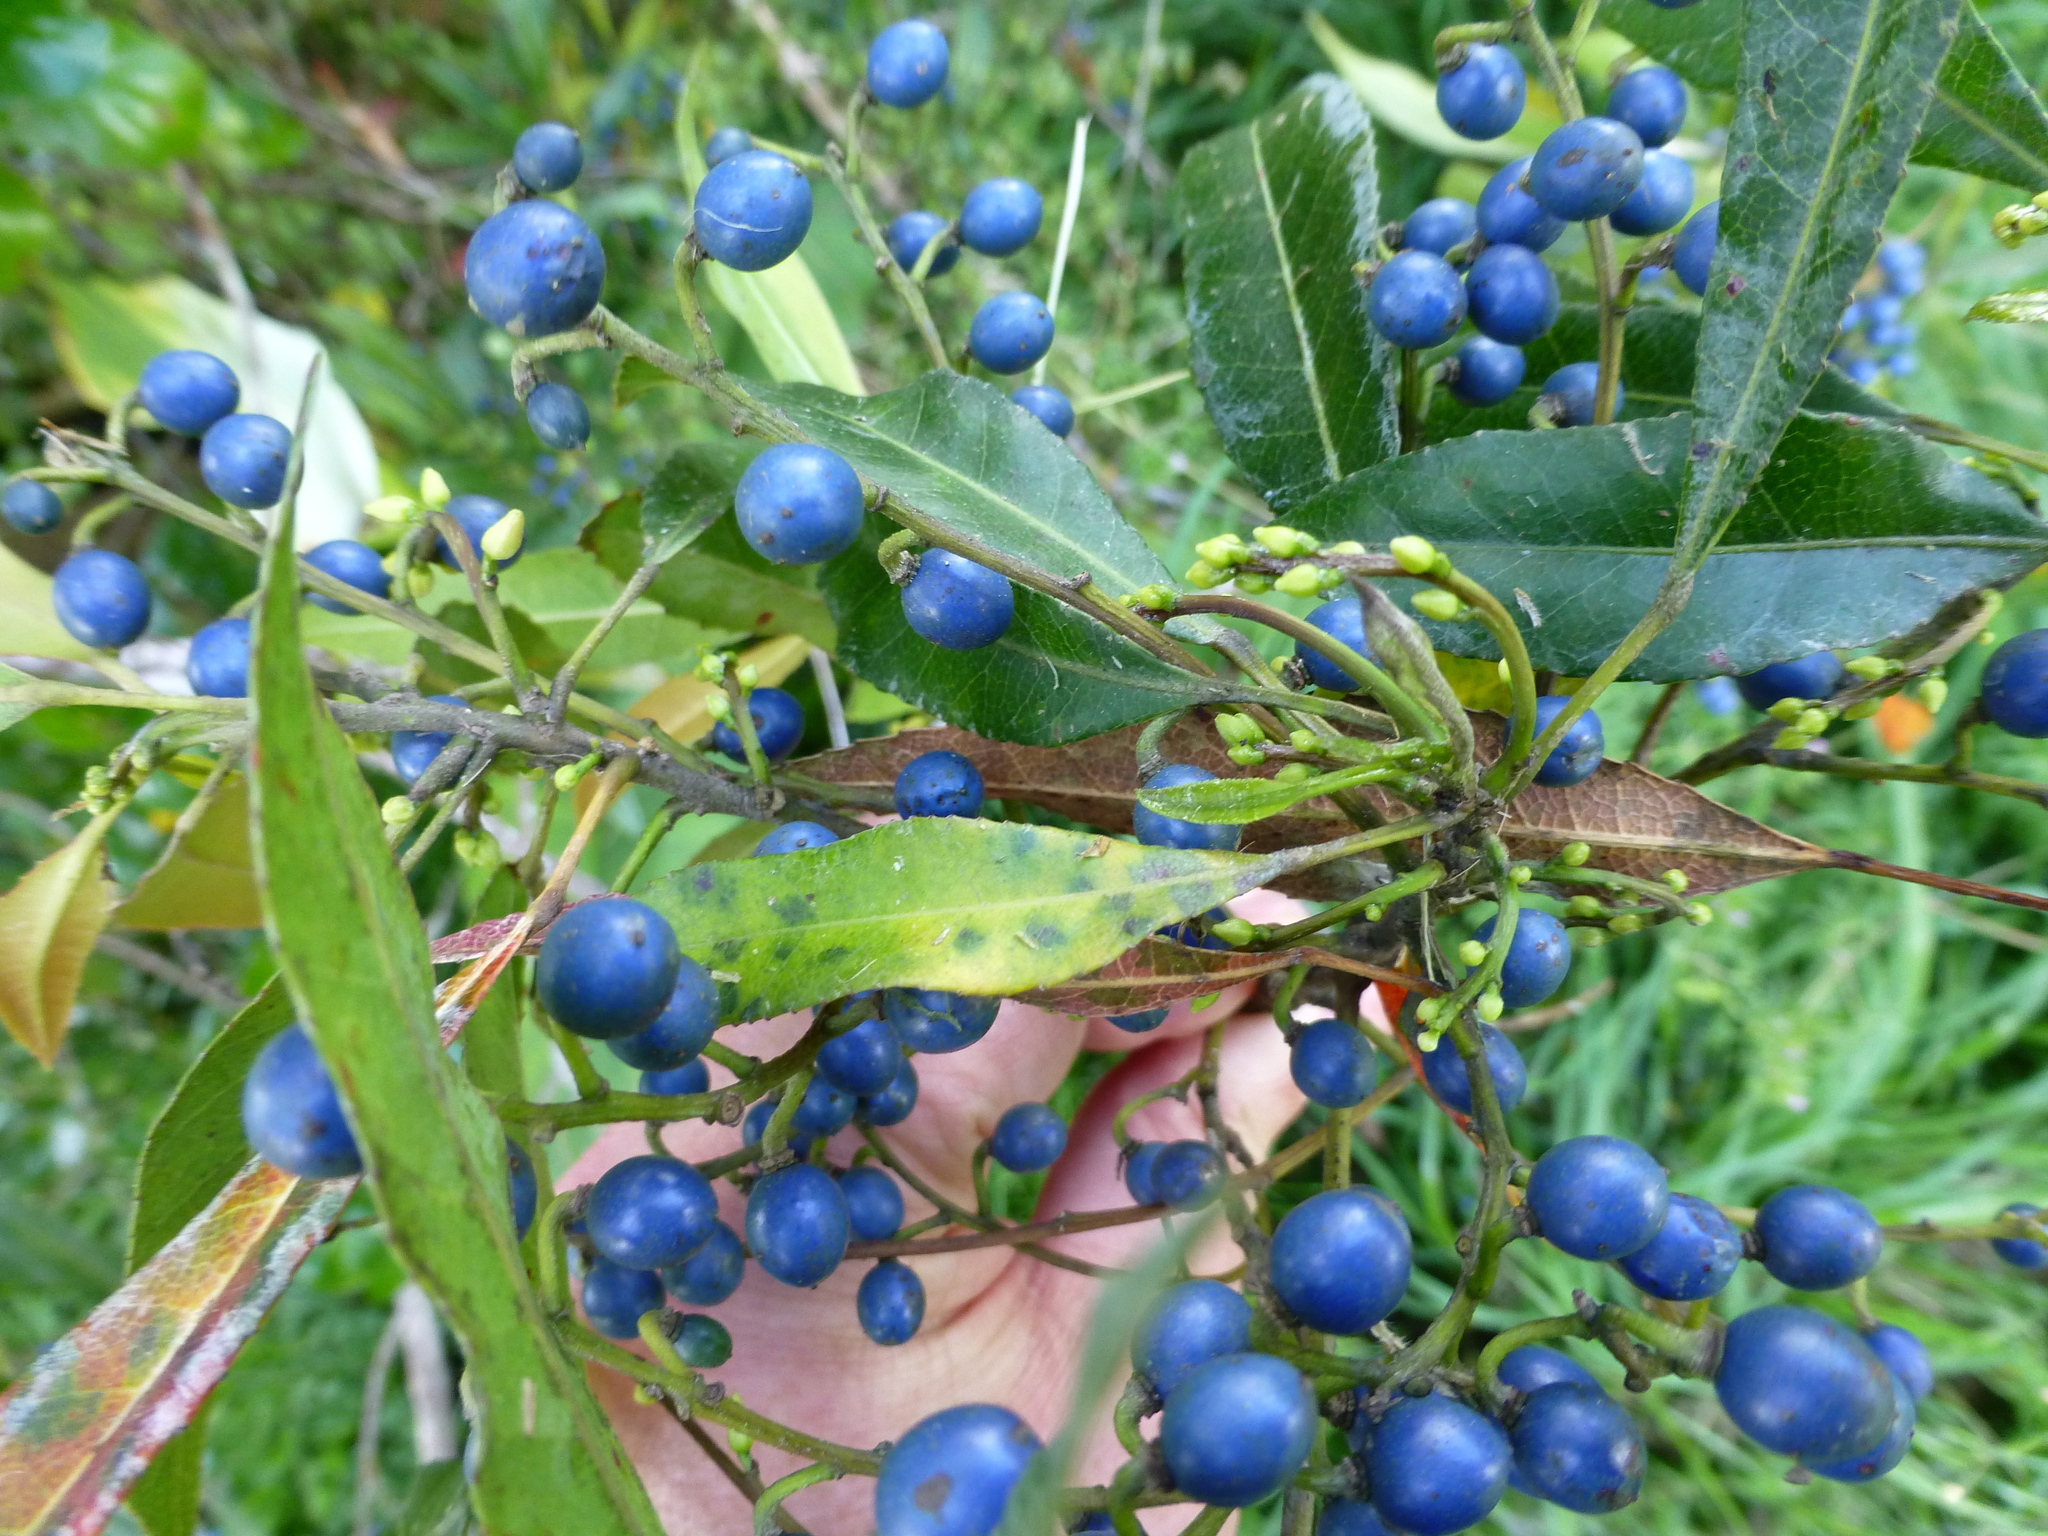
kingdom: Plantae
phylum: Tracheophyta
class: Magnoliopsida
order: Oxalidales
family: Elaeocarpaceae
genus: Elaeocarpus
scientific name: Elaeocarpus reticulatus
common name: Ash quandong
